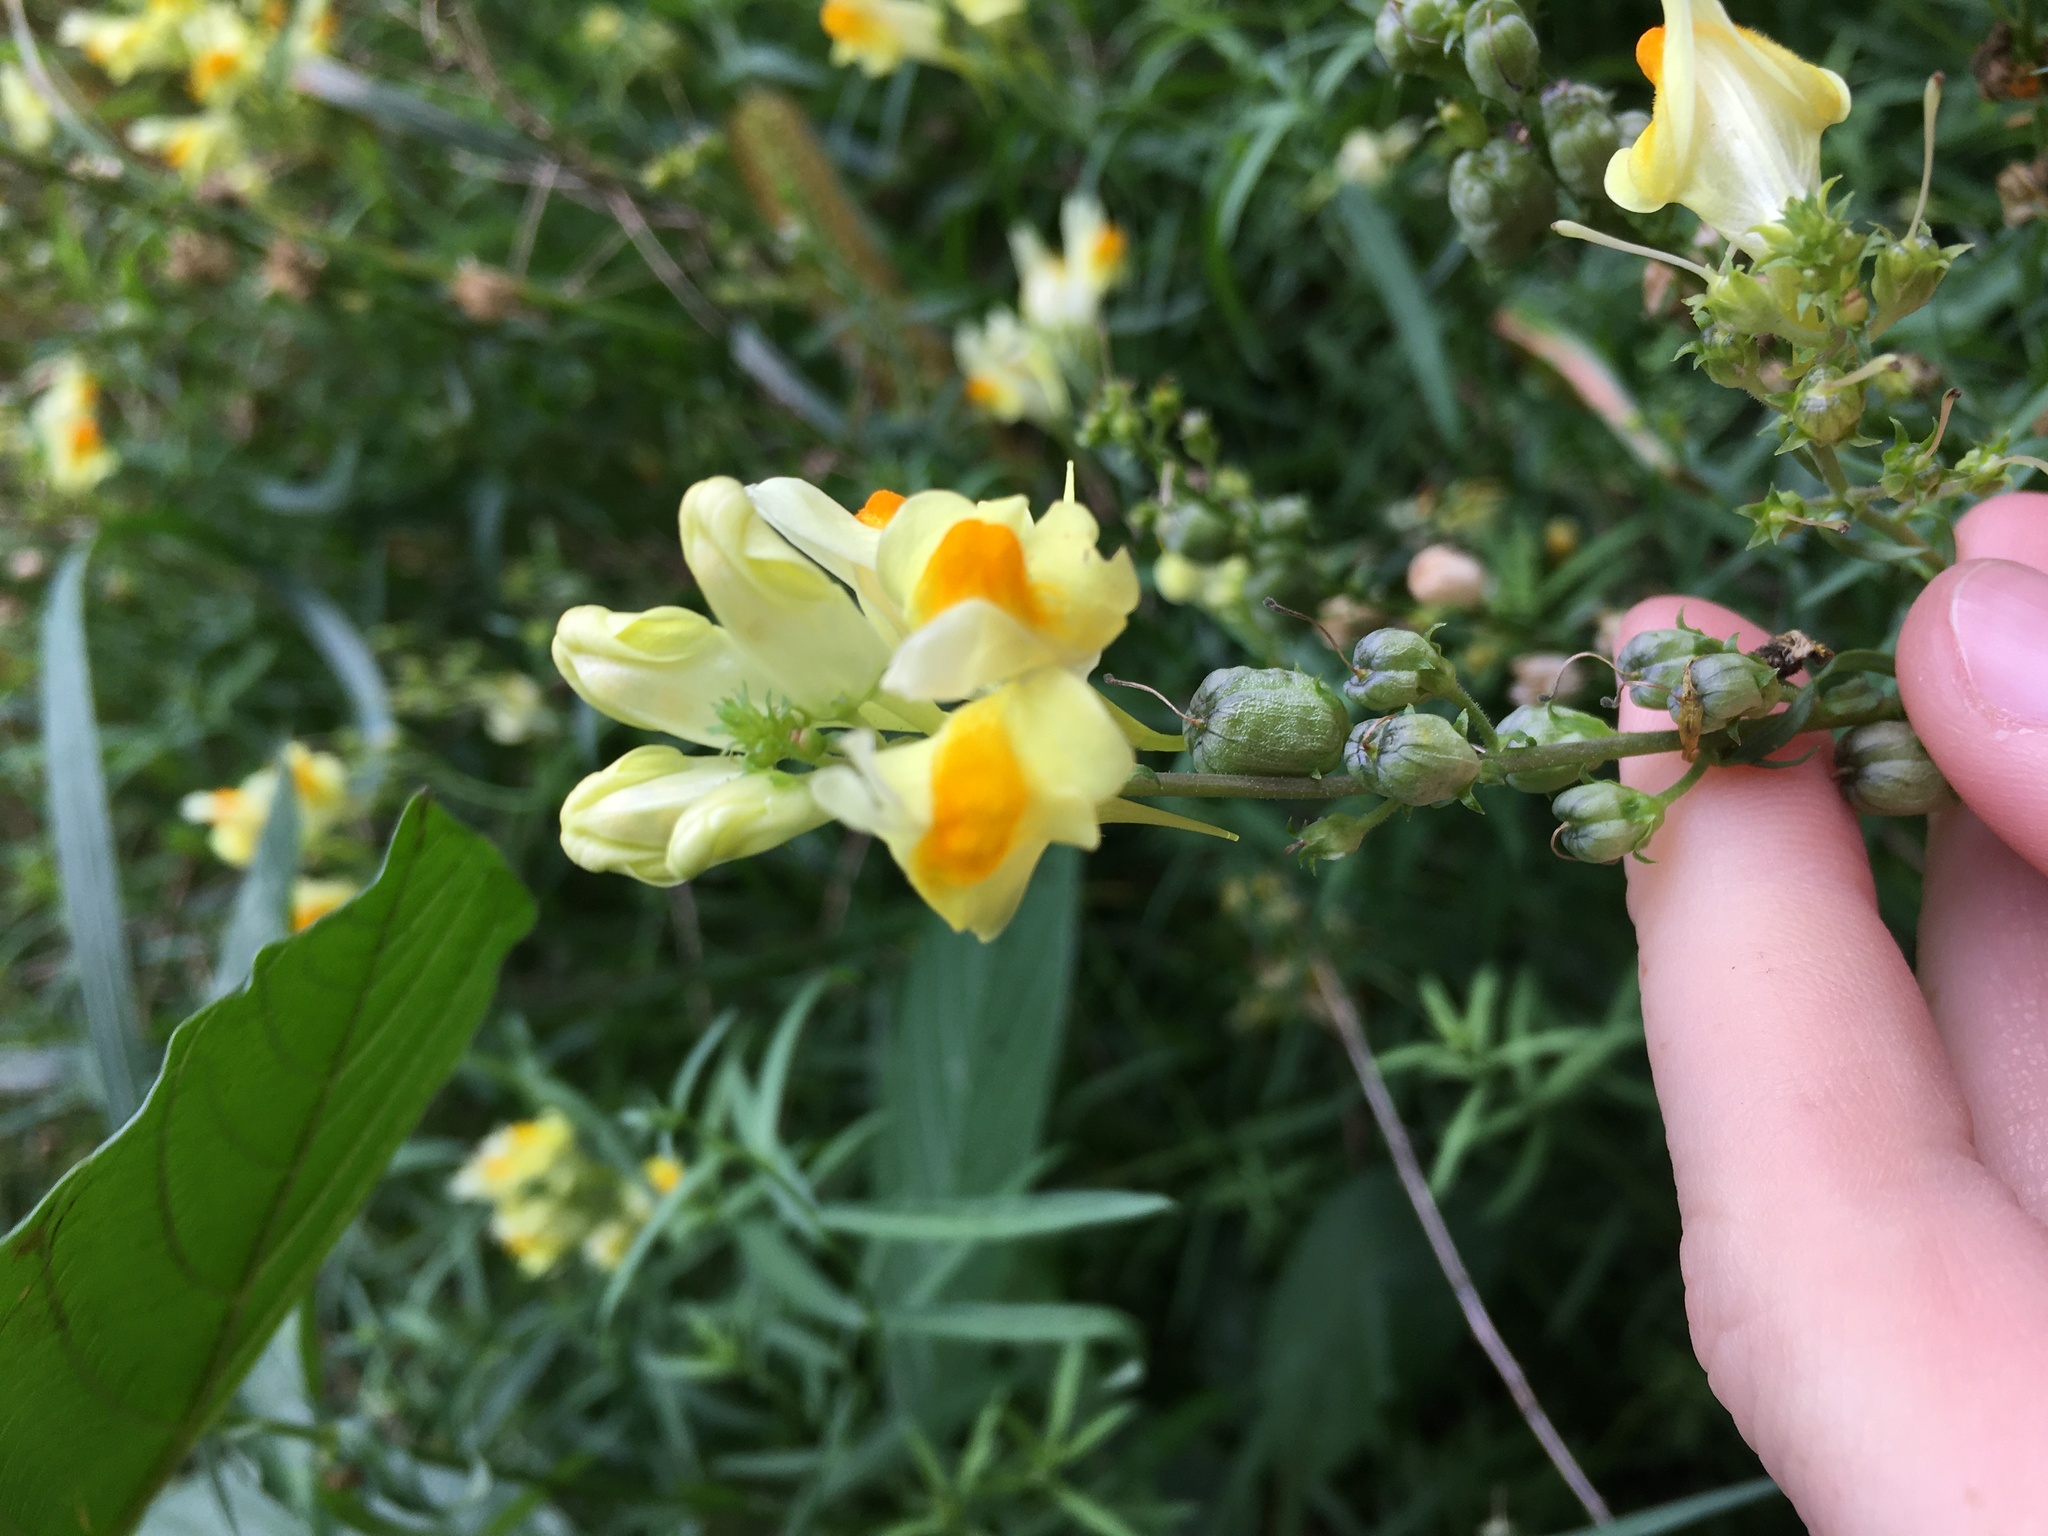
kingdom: Plantae
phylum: Tracheophyta
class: Magnoliopsida
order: Lamiales
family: Plantaginaceae
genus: Linaria
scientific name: Linaria vulgaris
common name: Butter and eggs
